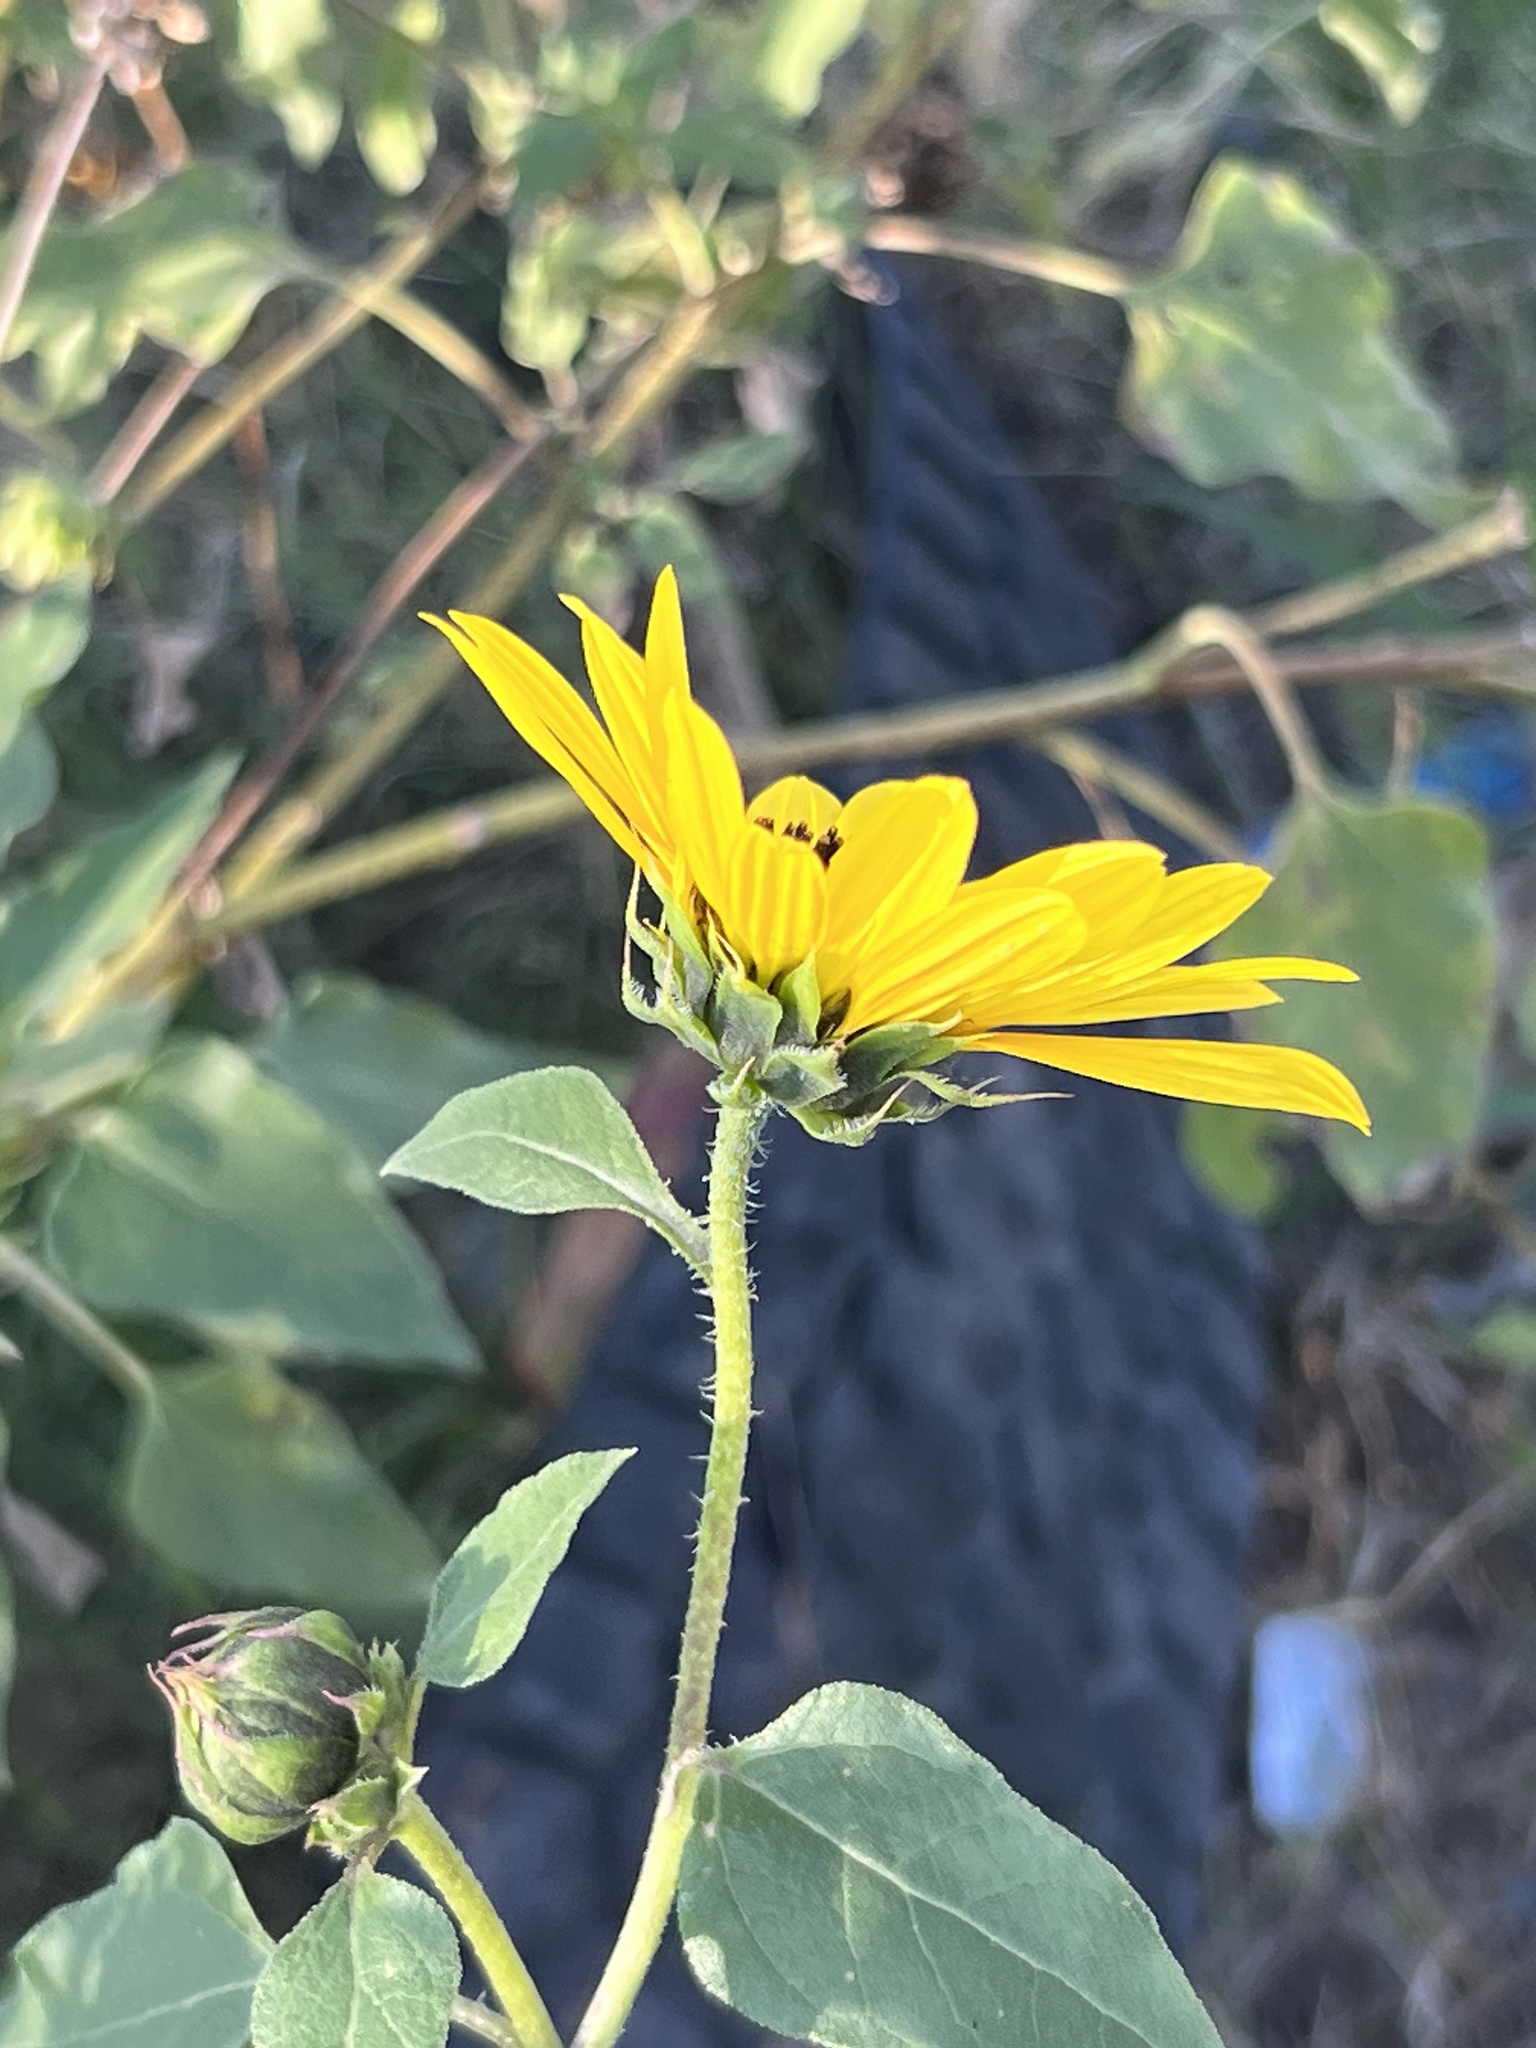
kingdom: Plantae
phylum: Tracheophyta
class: Magnoliopsida
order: Asterales
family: Asteraceae
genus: Helianthus
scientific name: Helianthus annuus
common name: Sunflower
